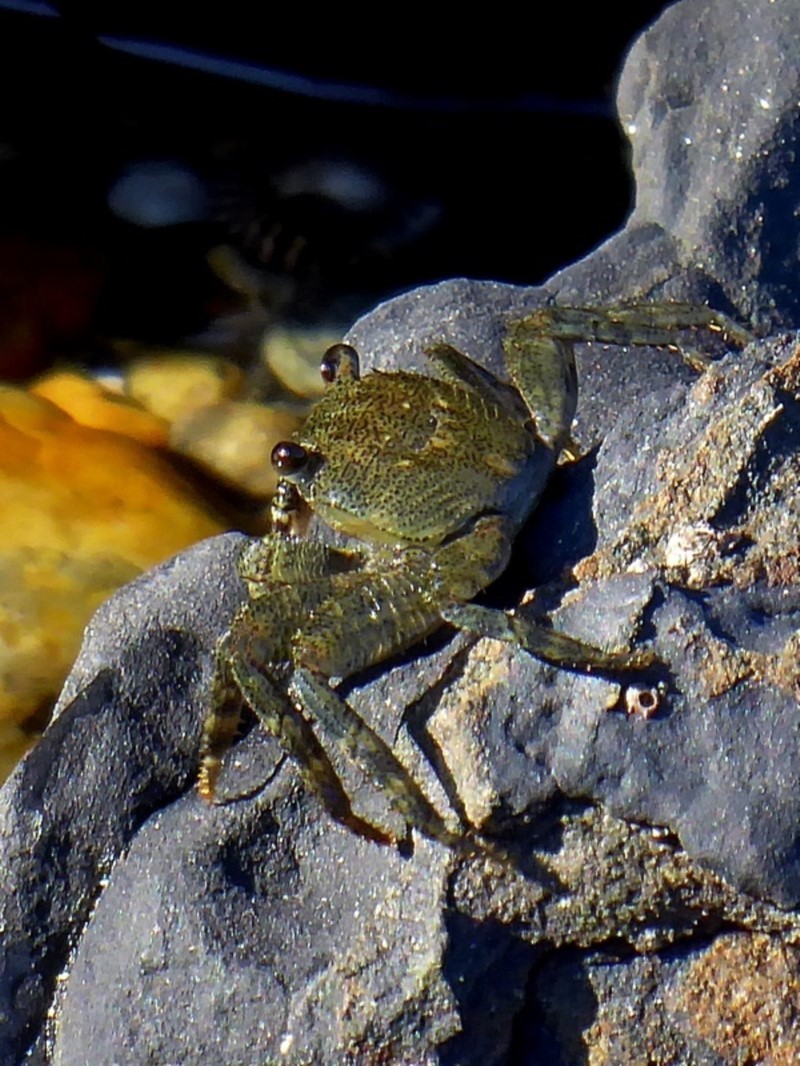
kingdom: Animalia
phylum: Arthropoda
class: Malacostraca
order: Decapoda
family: Grapsidae
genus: Leptograpsus
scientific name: Leptograpsus variegatus
